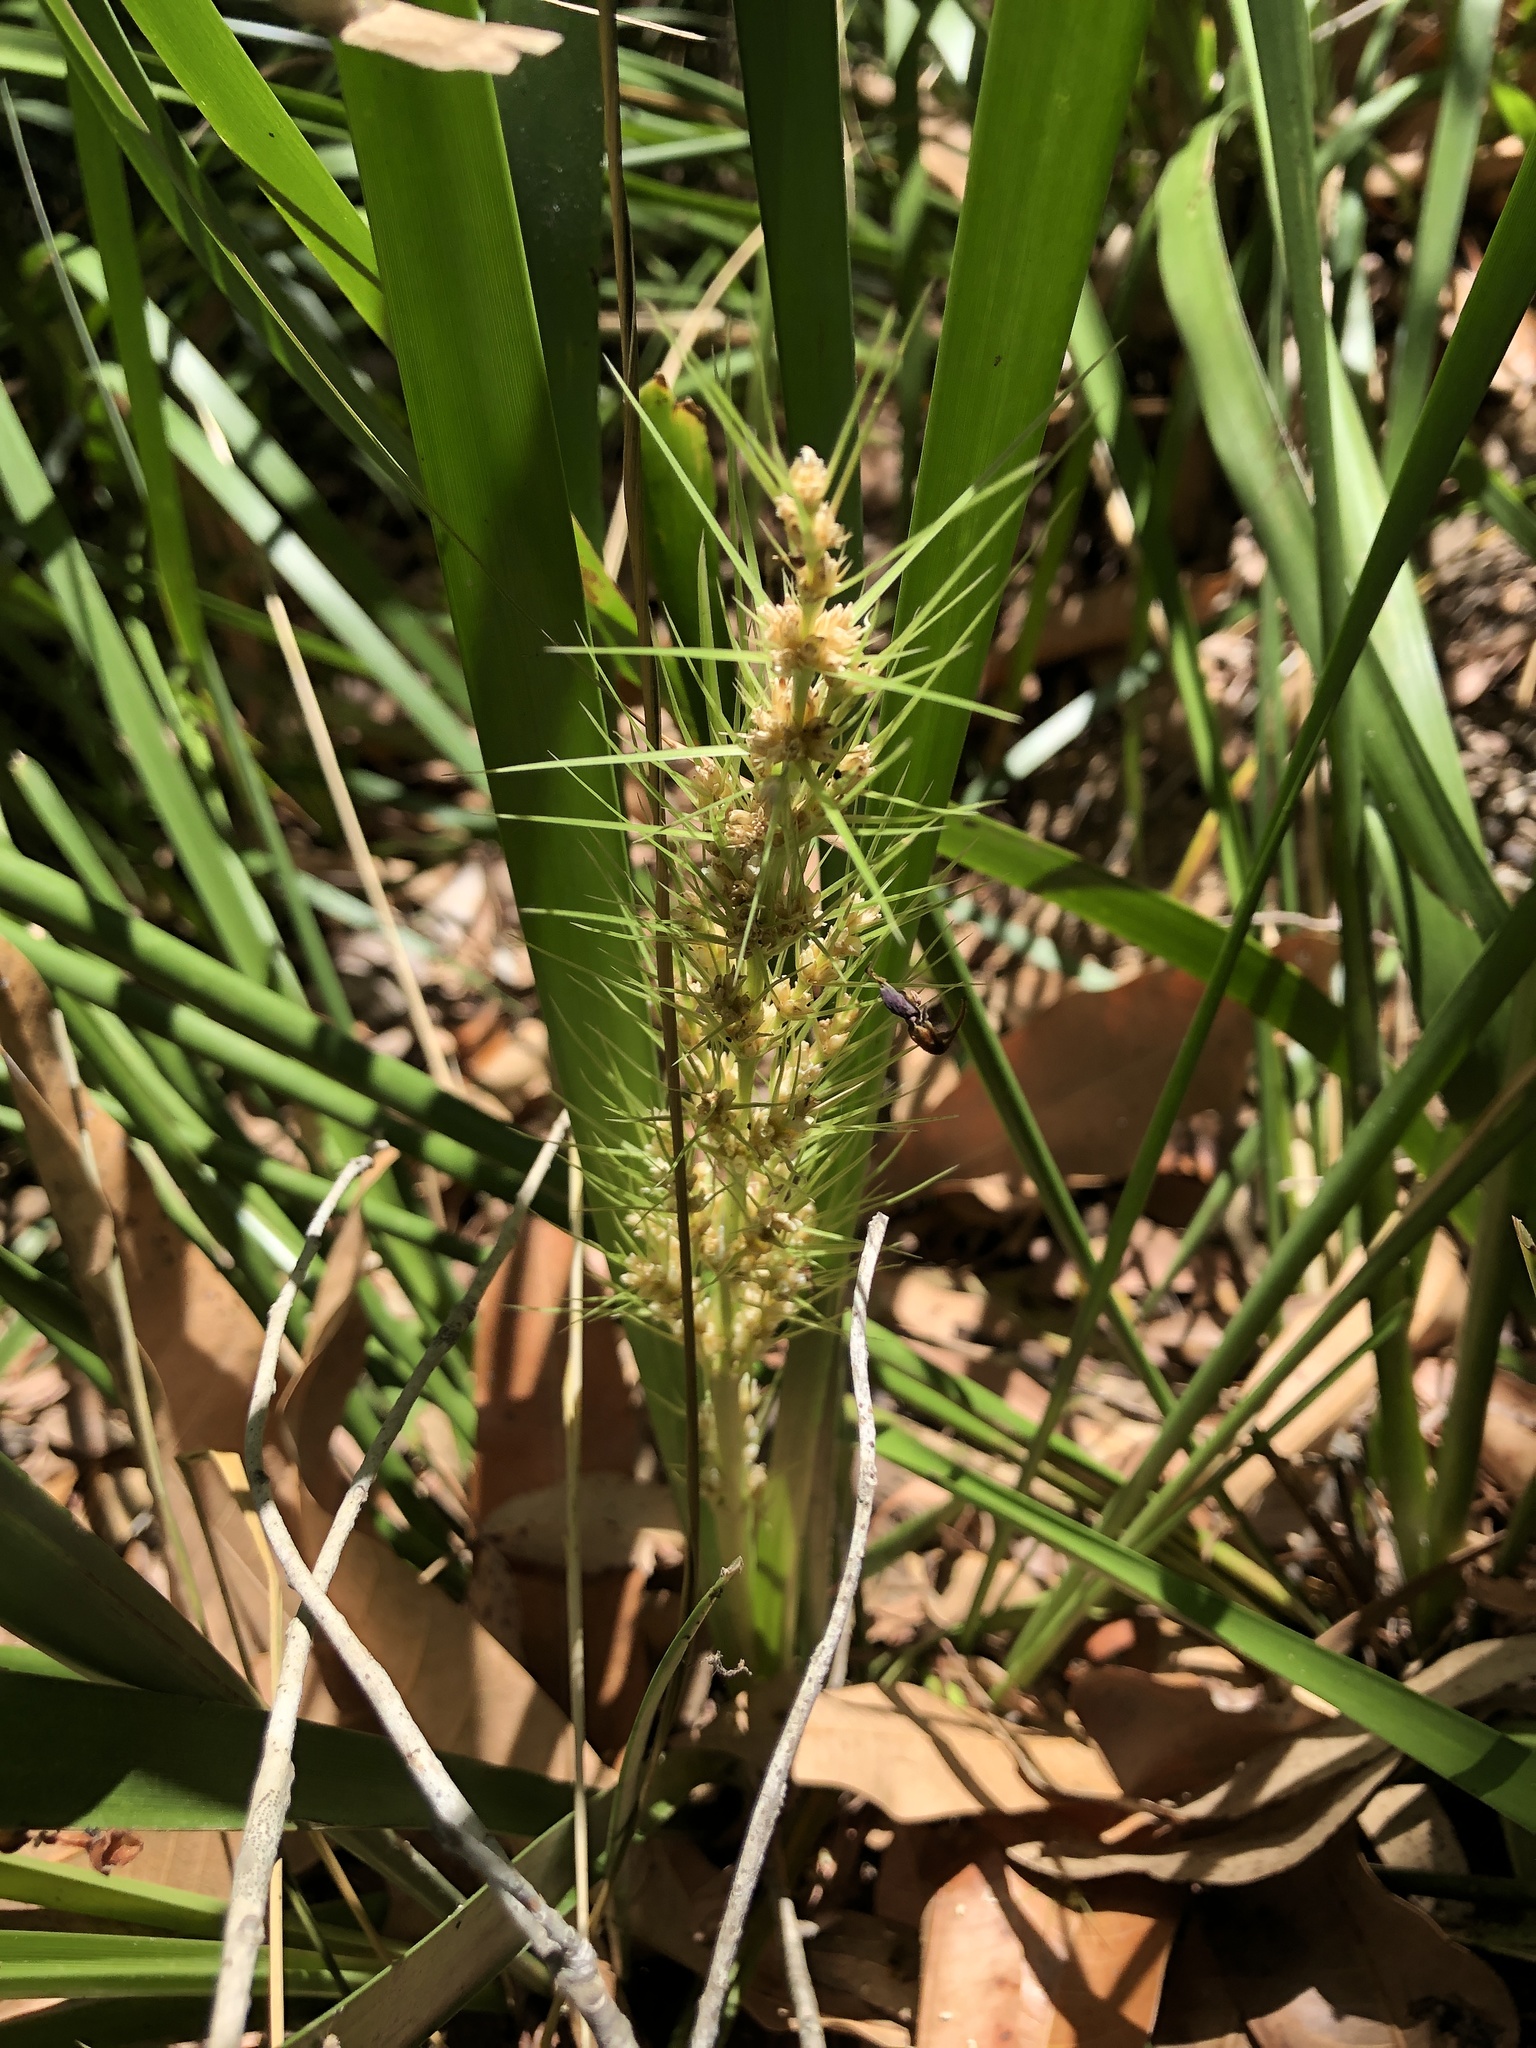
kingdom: Plantae
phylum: Tracheophyta
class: Liliopsida
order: Asparagales
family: Asparagaceae
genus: Lomandra
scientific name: Lomandra hystrix
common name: Creek mat-rush
